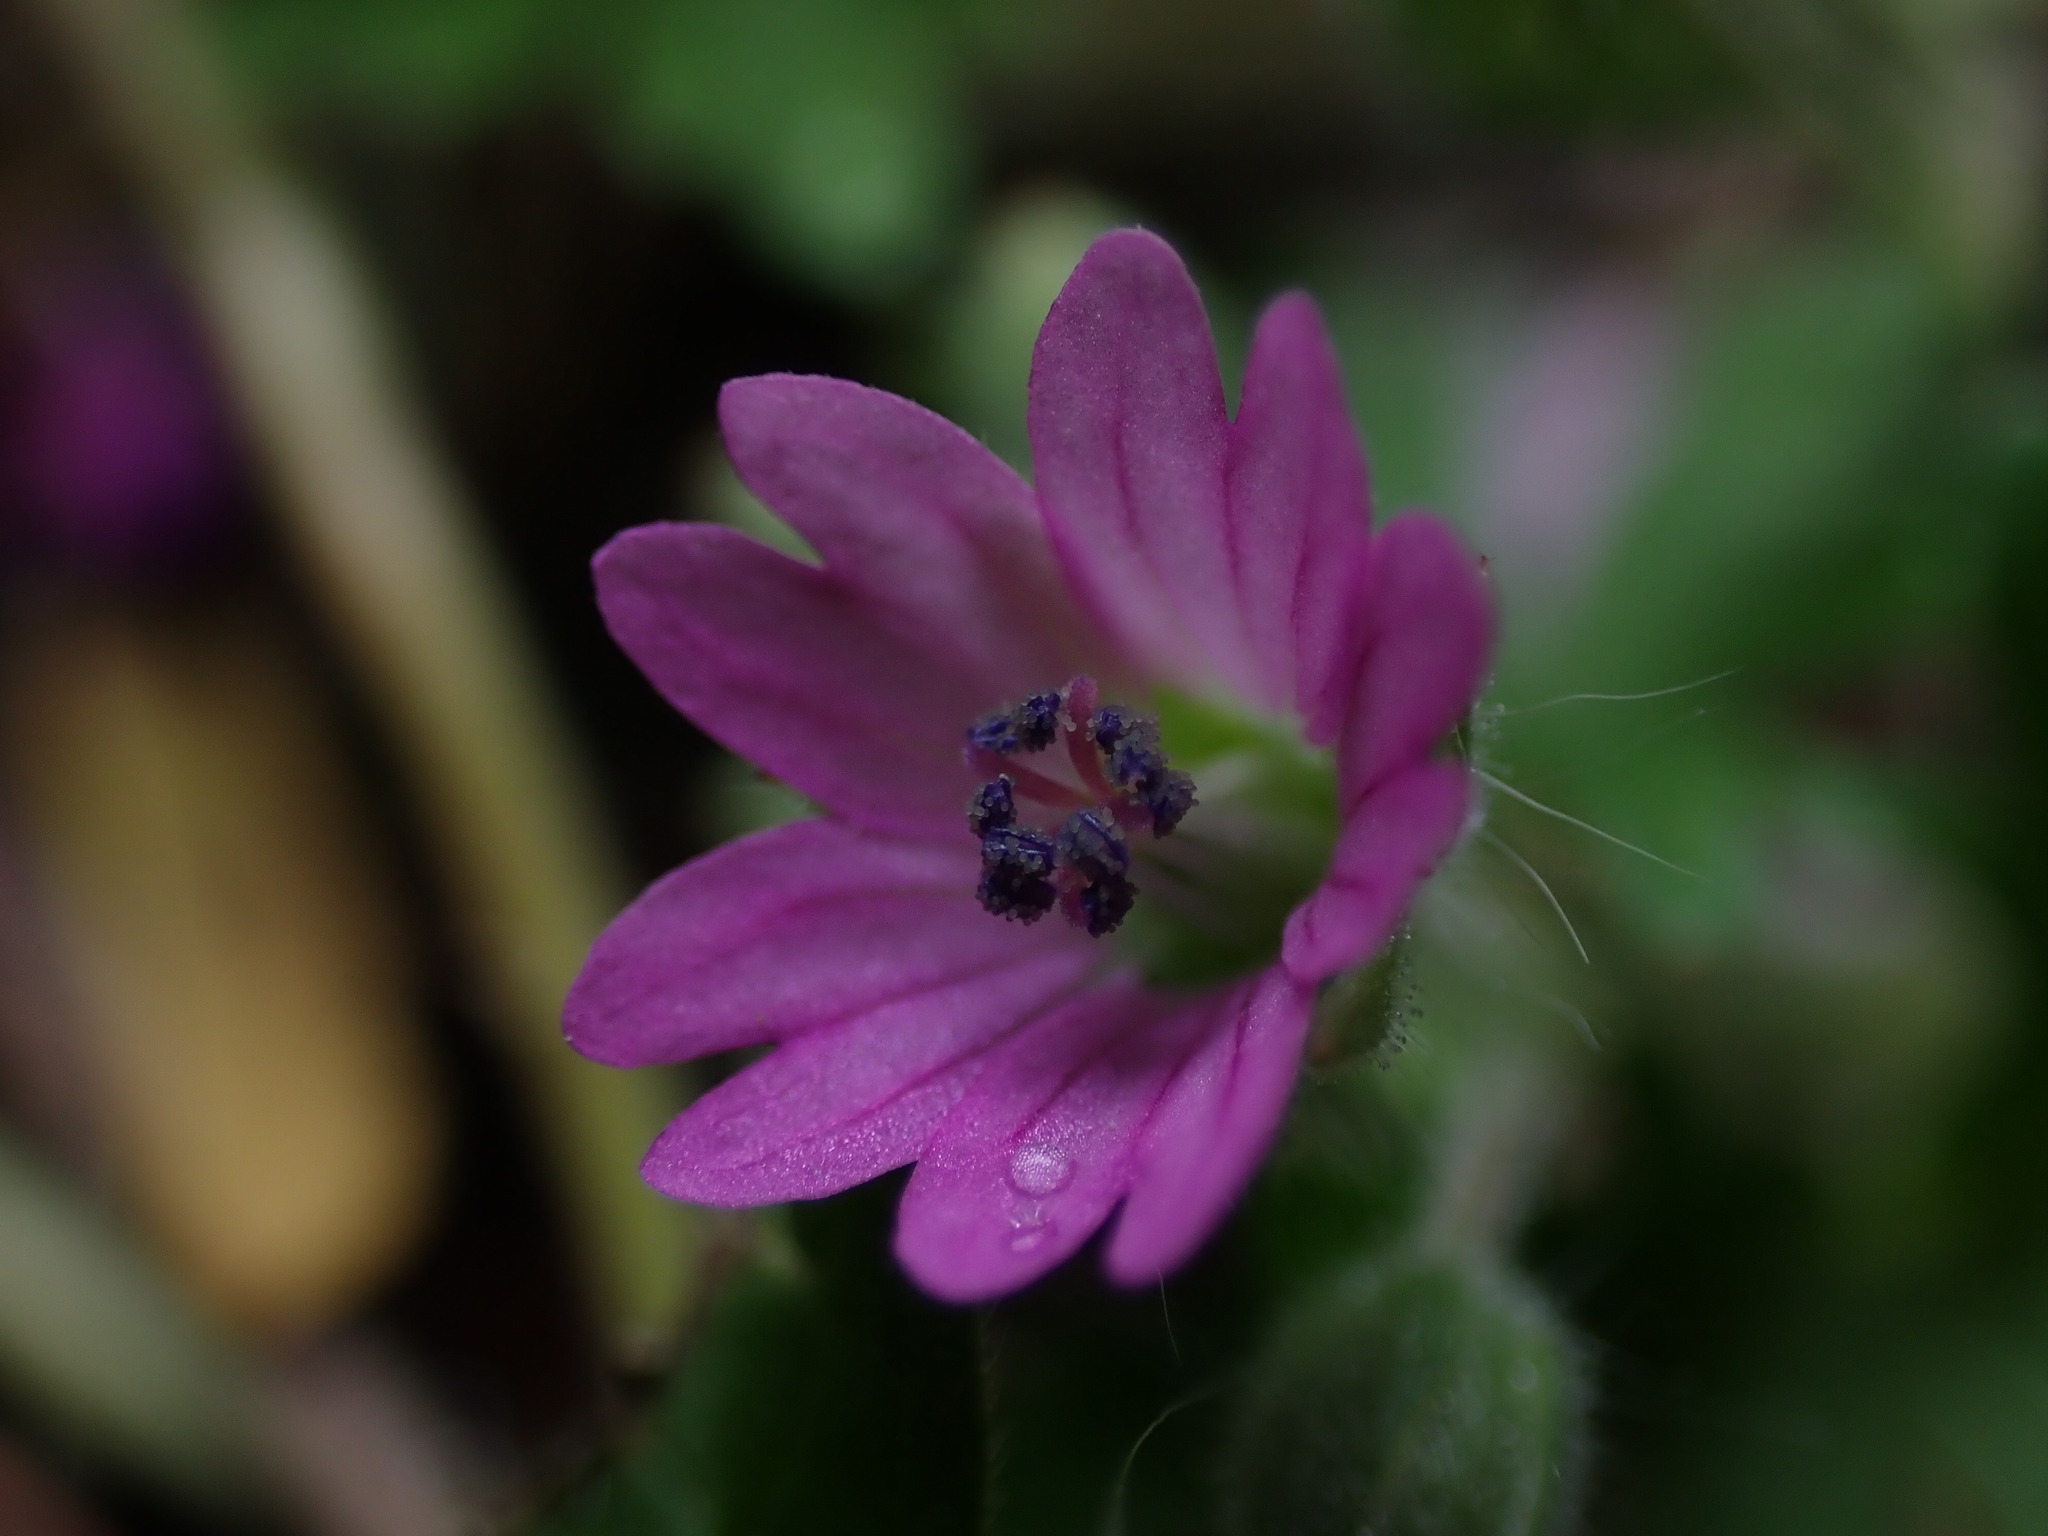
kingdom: Plantae
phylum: Tracheophyta
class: Magnoliopsida
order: Geraniales
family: Geraniaceae
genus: Geranium
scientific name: Geranium molle
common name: Dove's-foot crane's-bill
